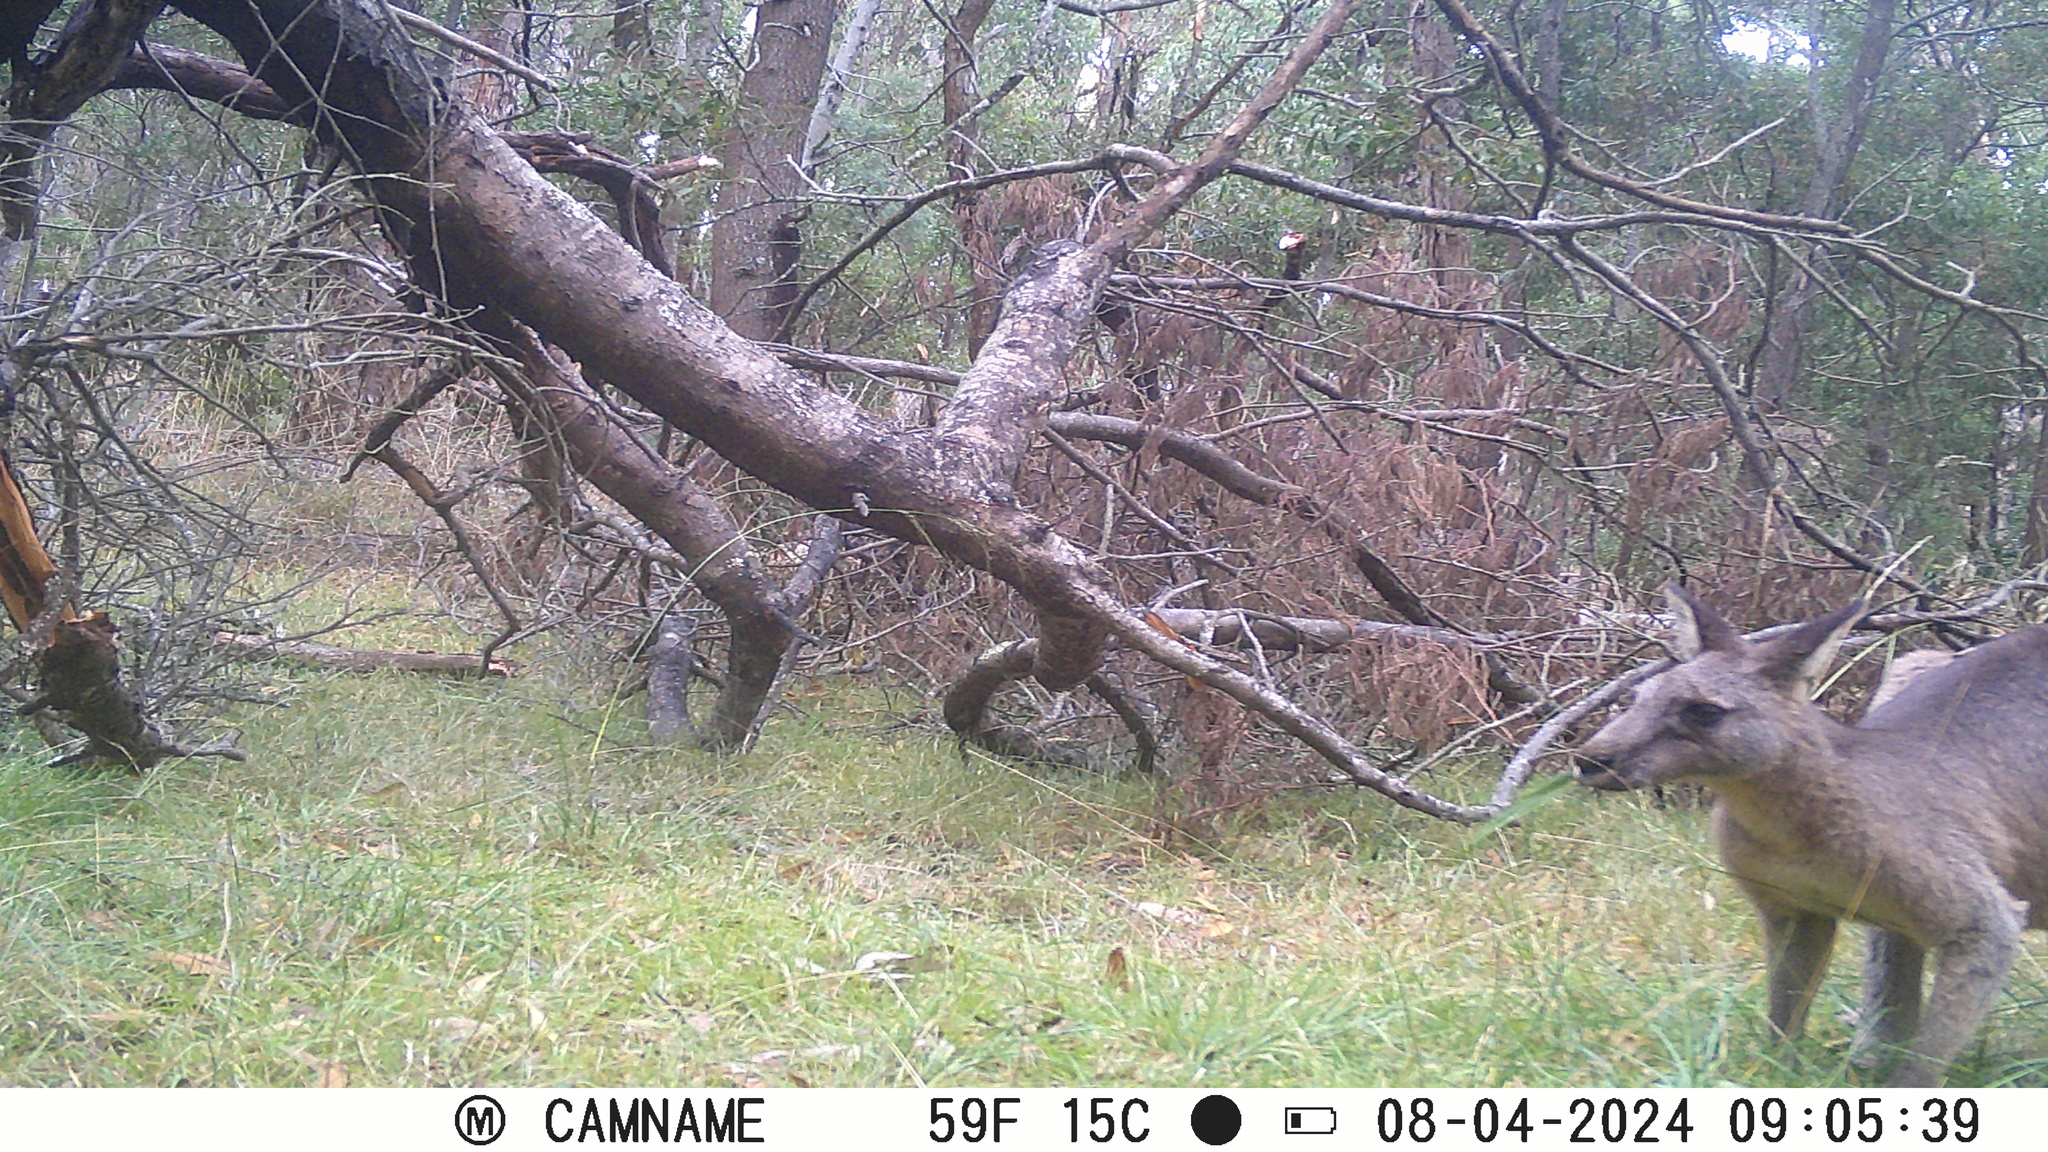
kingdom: Animalia
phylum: Chordata
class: Mammalia
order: Diprotodontia
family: Macropodidae
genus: Macropus
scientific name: Macropus giganteus
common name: Eastern grey kangaroo
